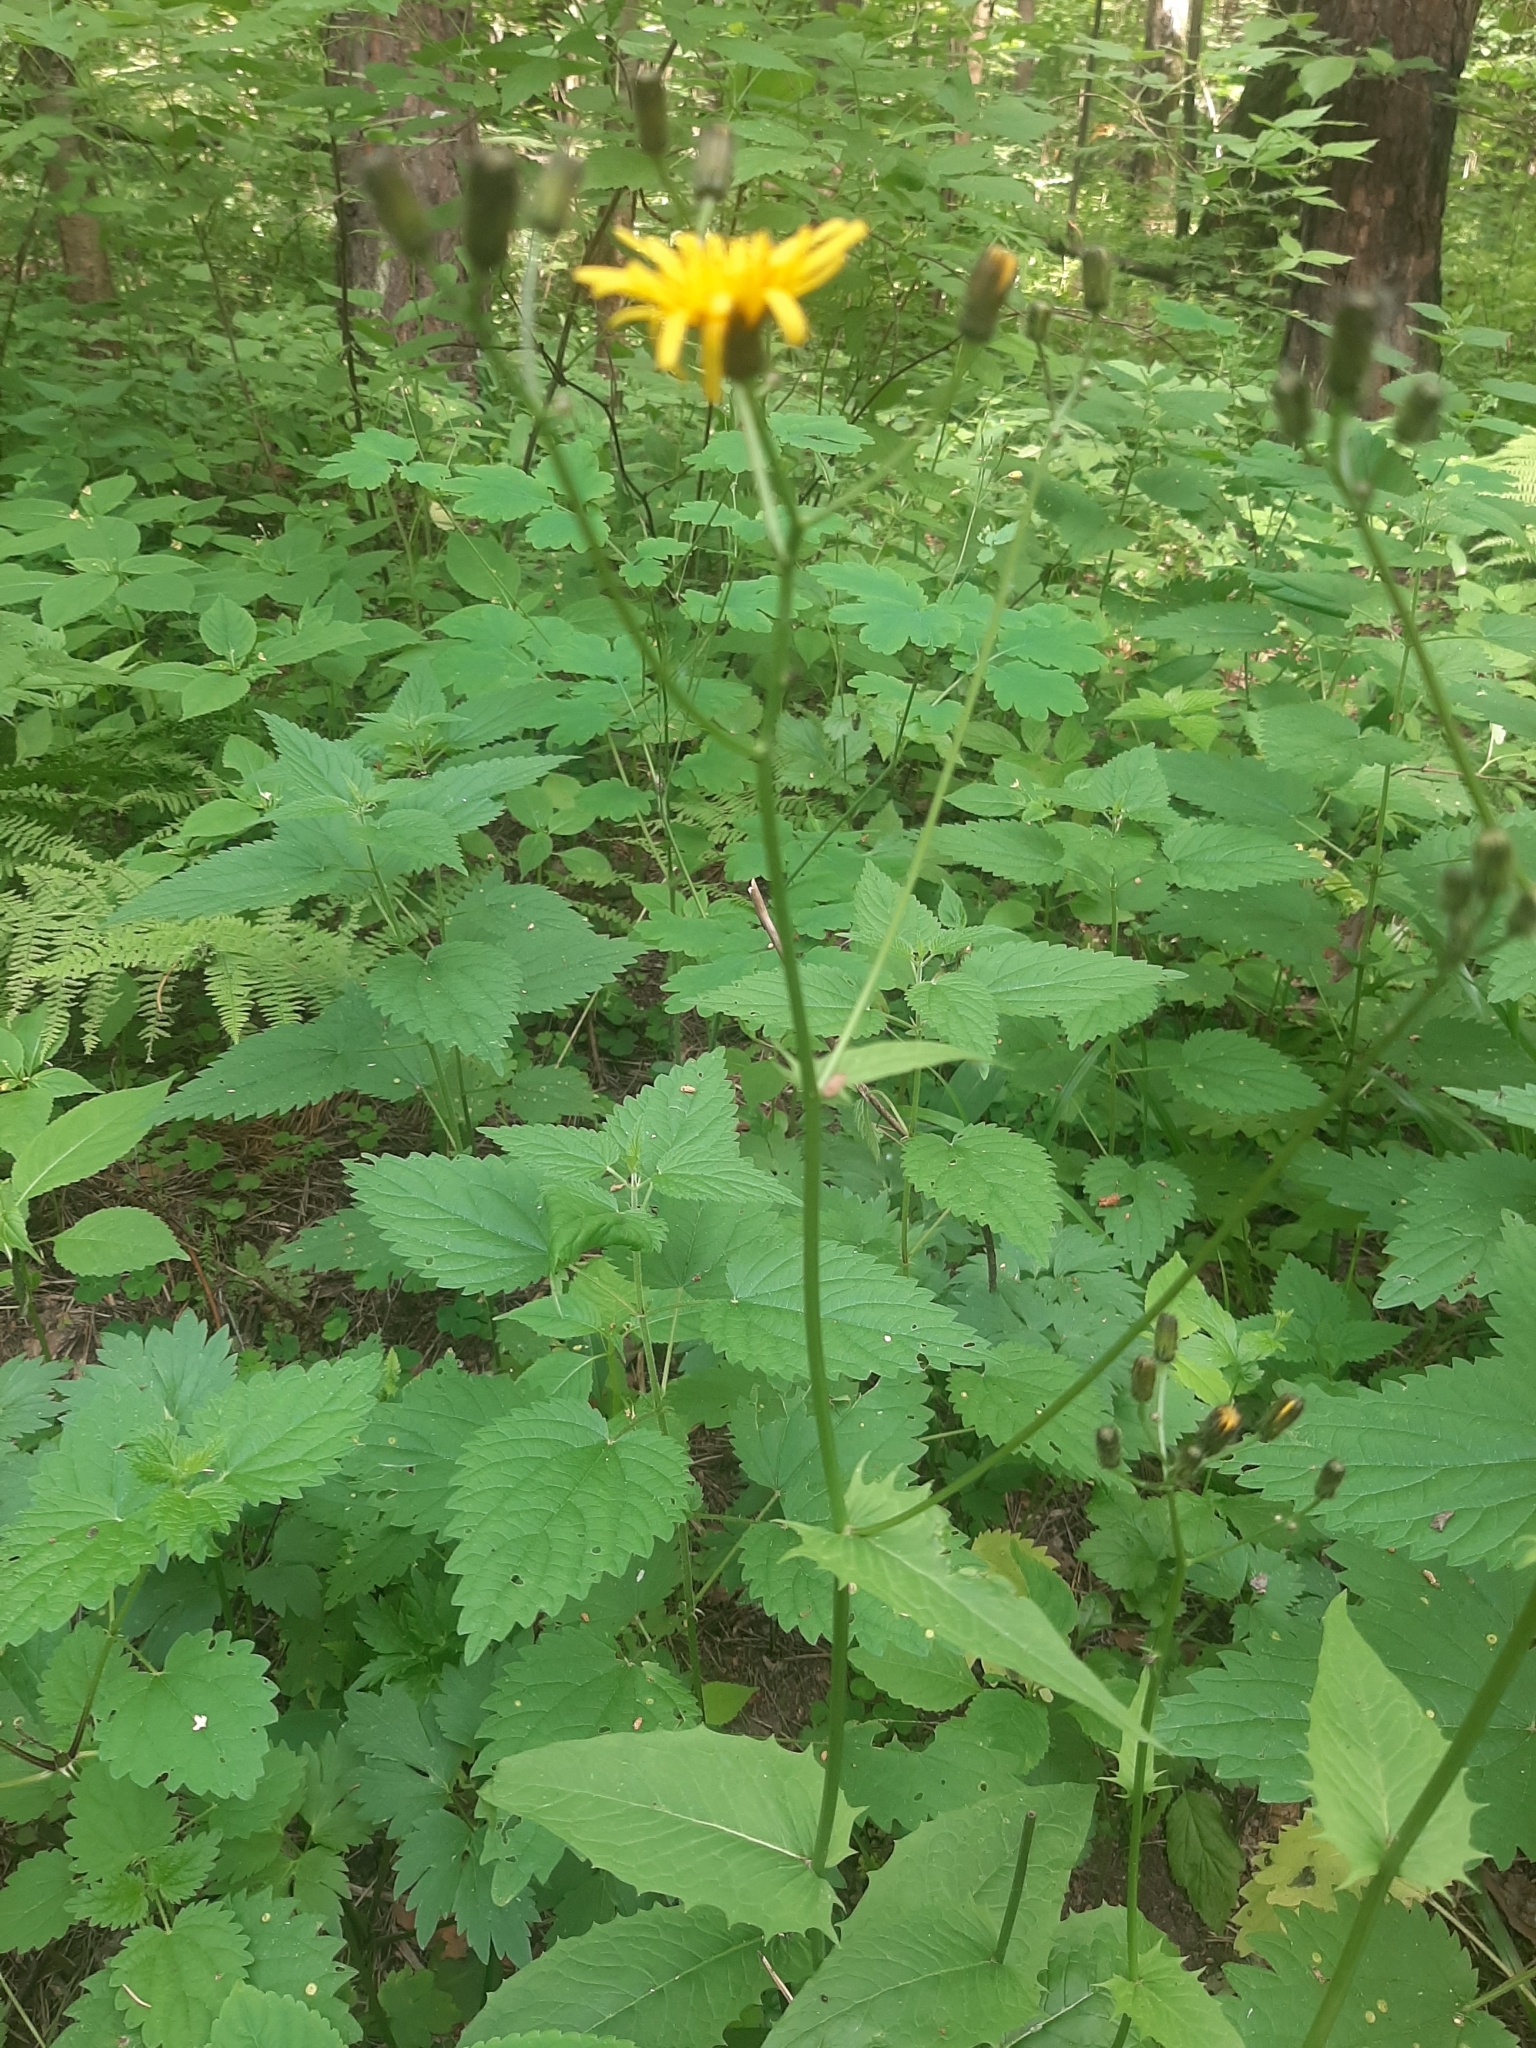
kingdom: Plantae
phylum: Tracheophyta
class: Magnoliopsida
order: Asterales
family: Asteraceae
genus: Crepis
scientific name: Crepis paludosa
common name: Marsh hawk's-beard
